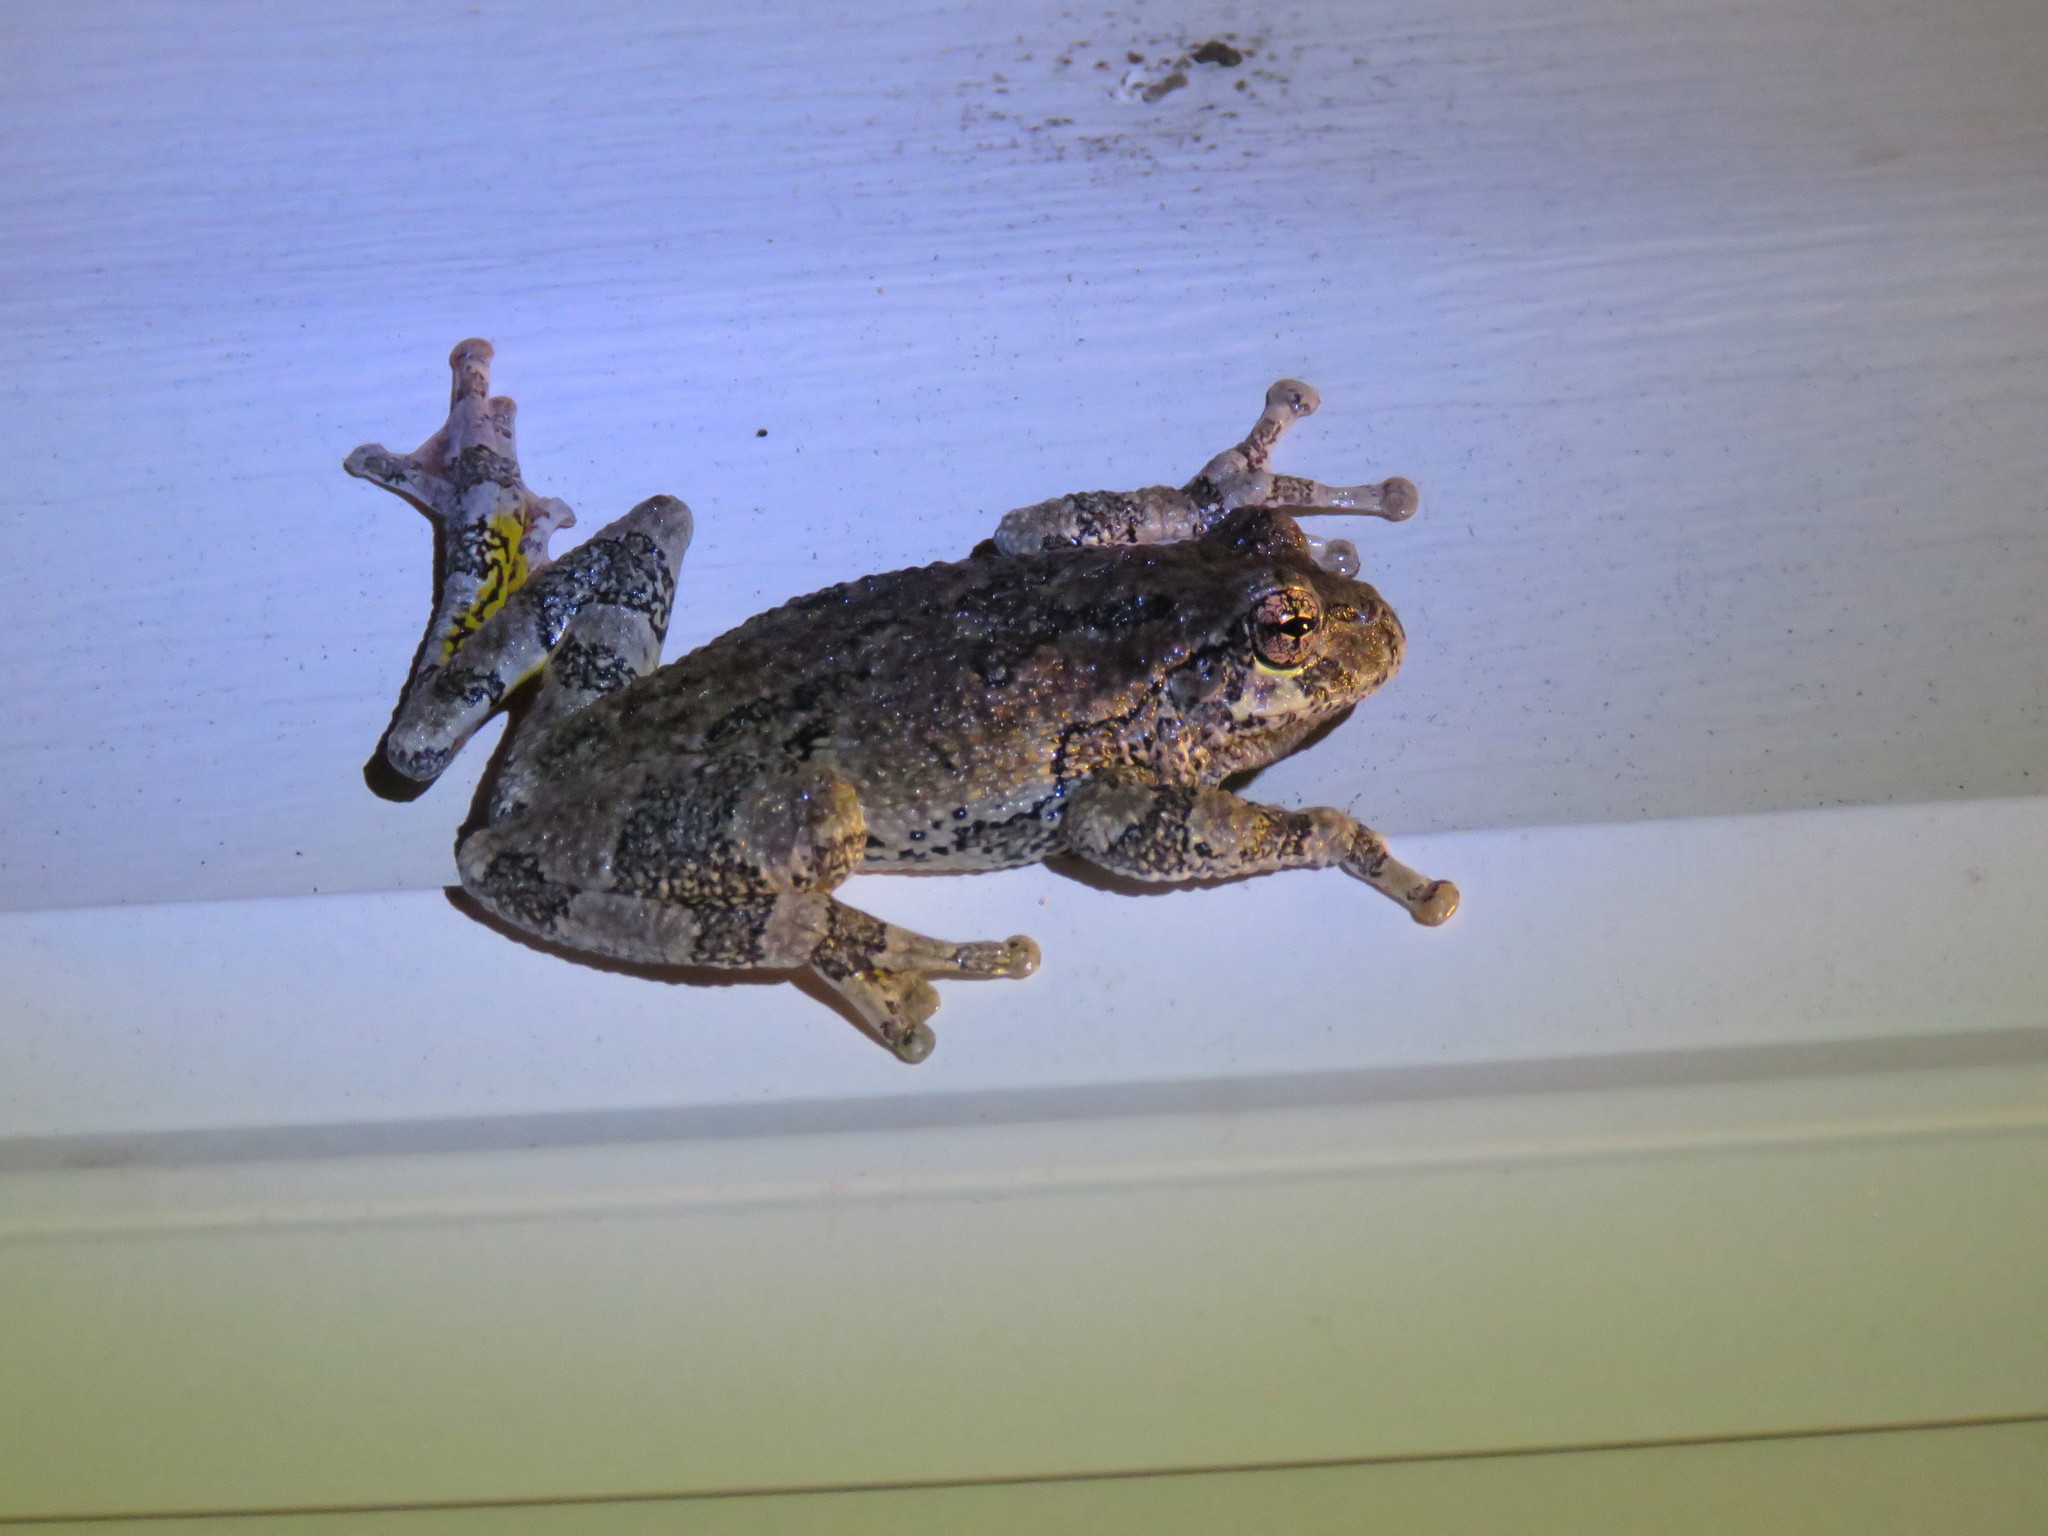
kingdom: Animalia
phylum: Chordata
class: Amphibia
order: Anura
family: Hylidae
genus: Dryophytes
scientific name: Dryophytes versicolor
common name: Gray treefrog
